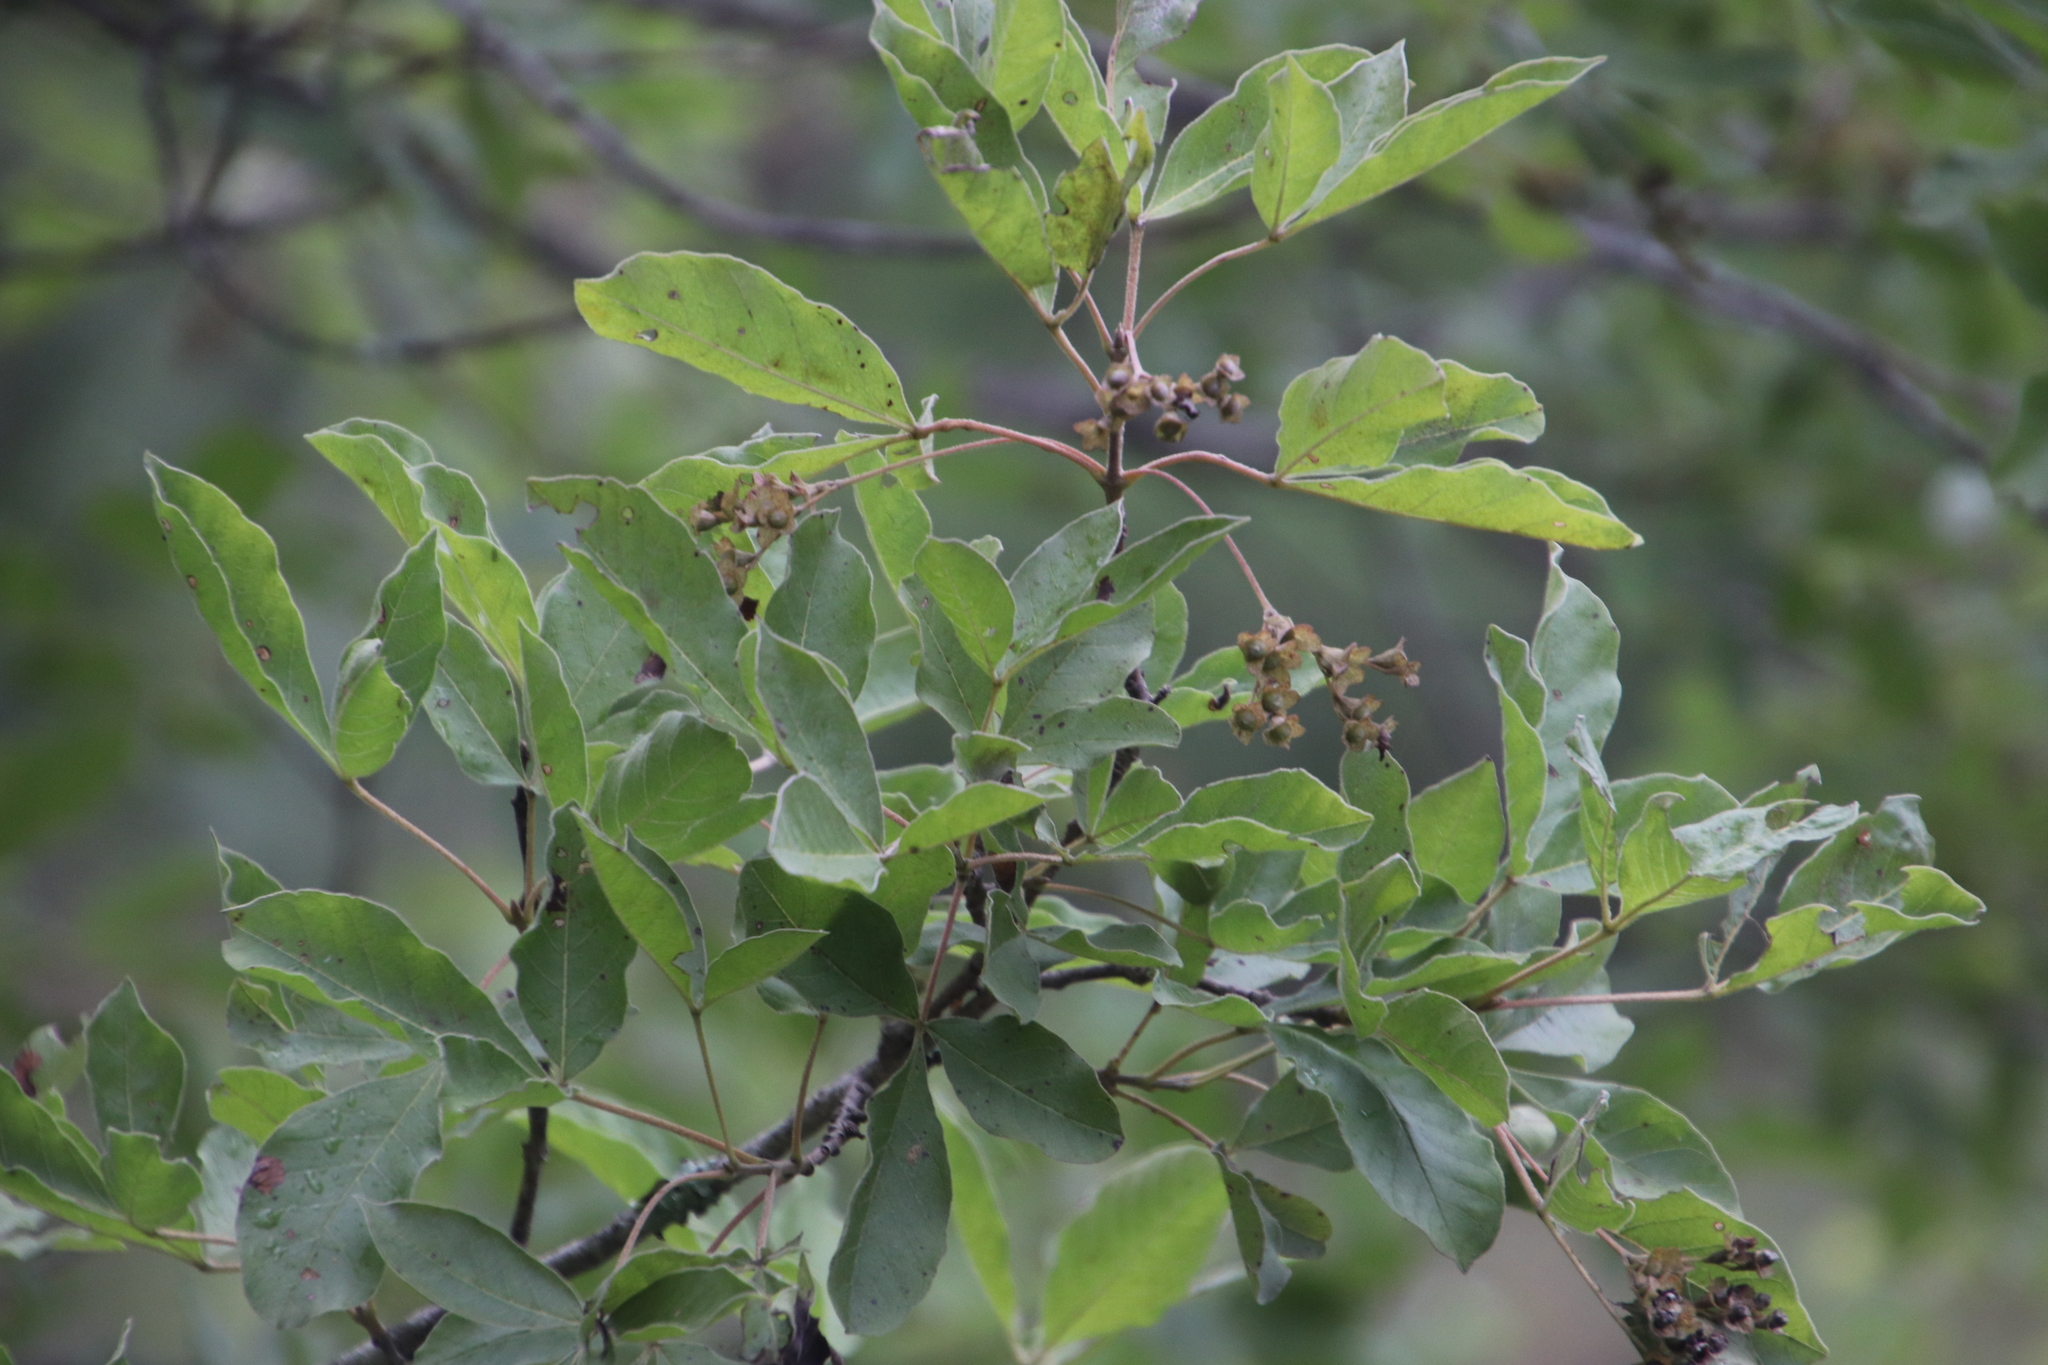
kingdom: Plantae
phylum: Tracheophyta
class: Magnoliopsida
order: Lamiales
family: Lamiaceae
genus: Vitex
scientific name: Vitex obovata
